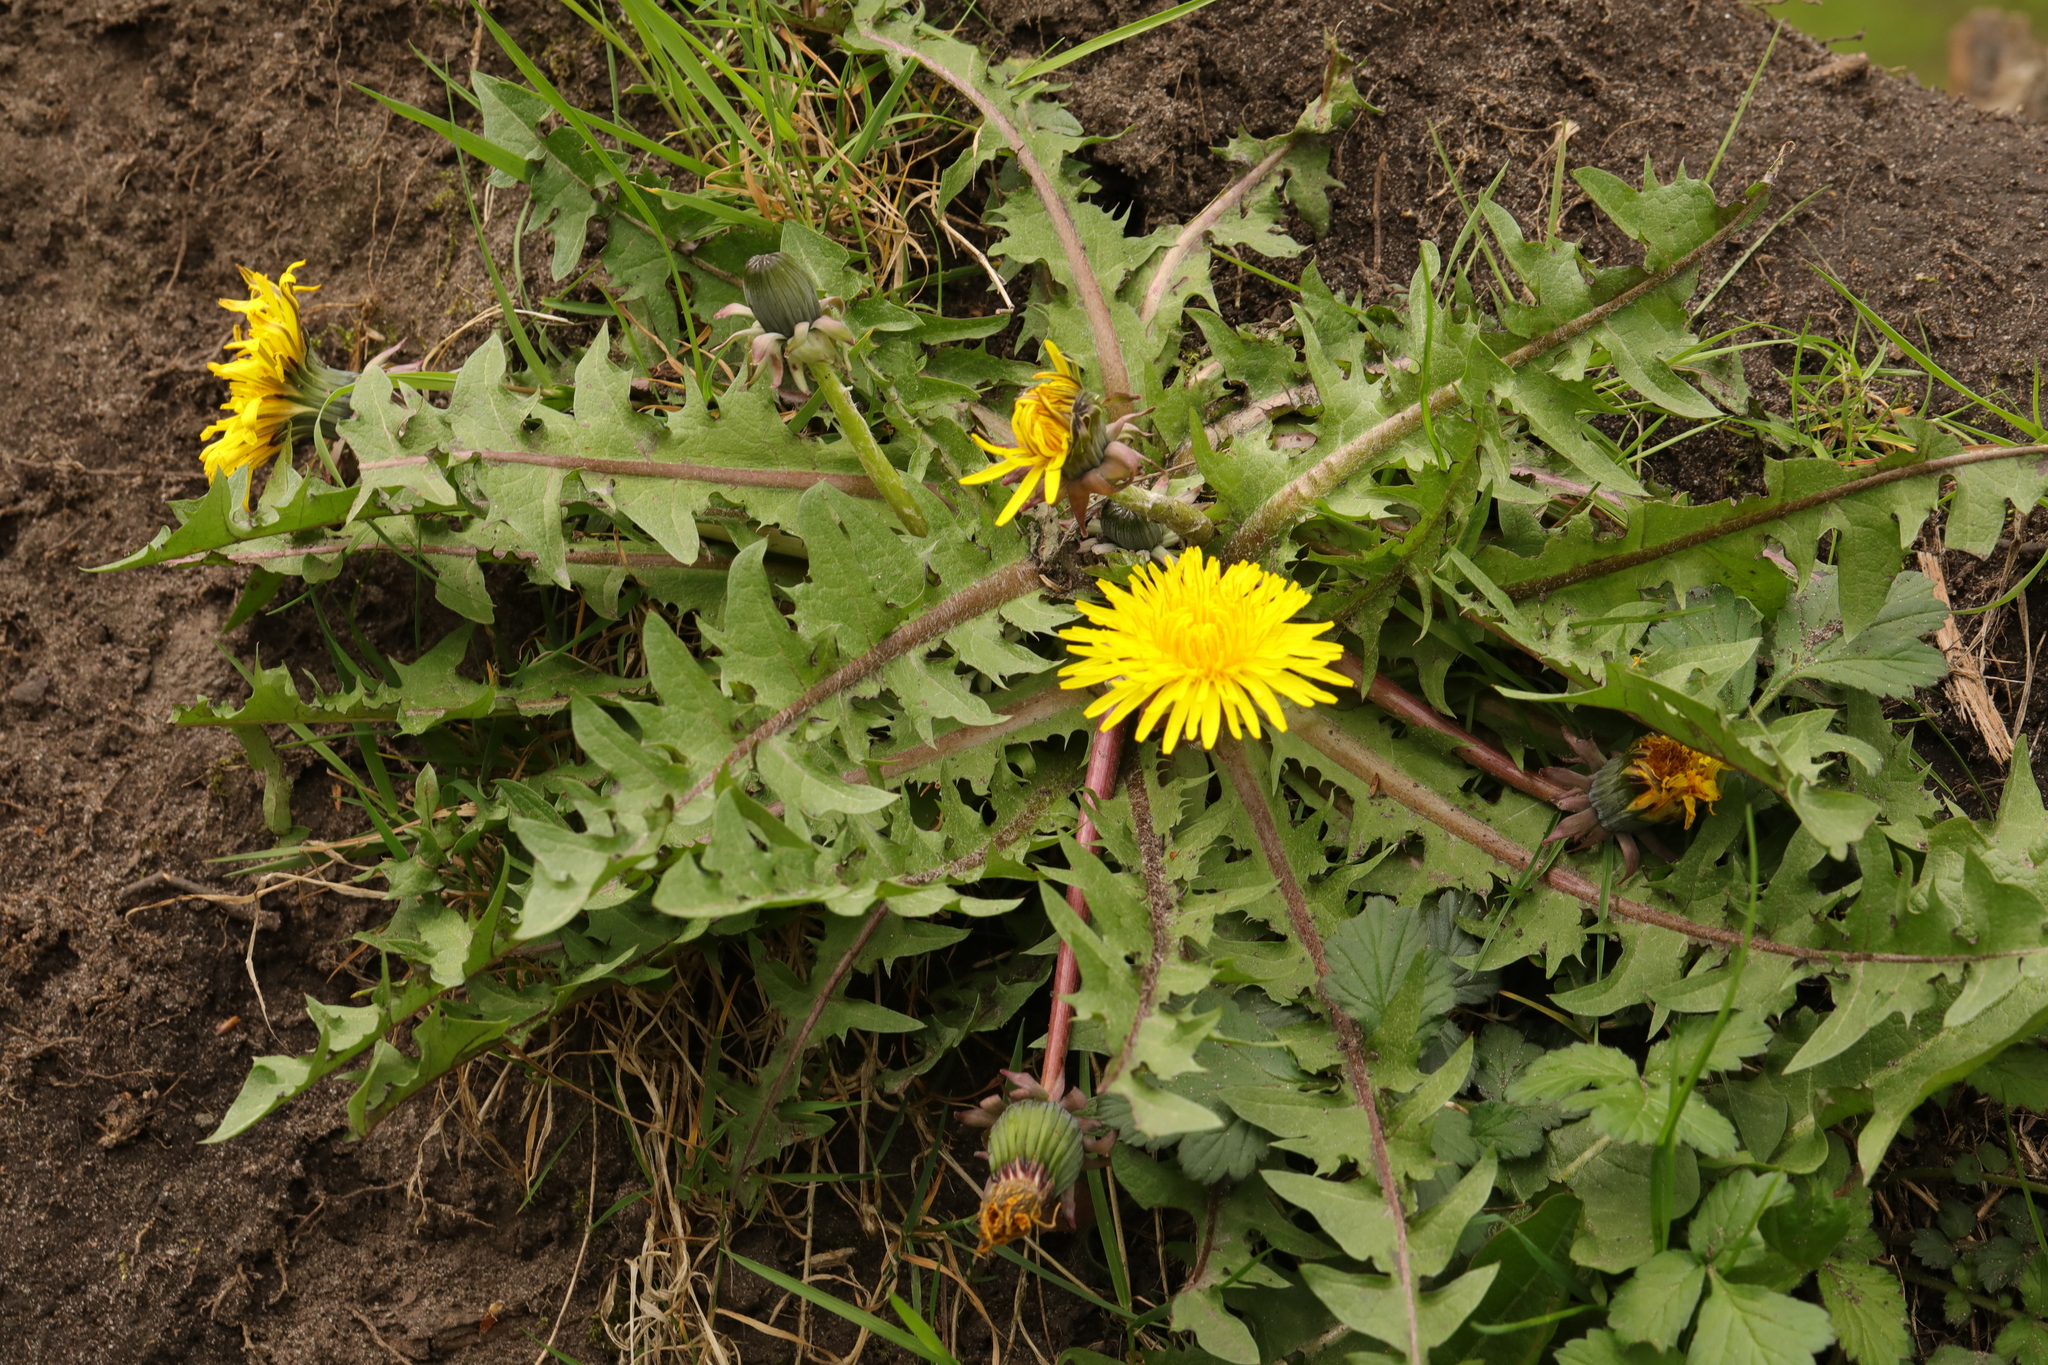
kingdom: Plantae
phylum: Tracheophyta
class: Magnoliopsida
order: Asterales
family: Asteraceae
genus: Taraxacum
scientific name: Taraxacum officinale
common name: Common dandelion
